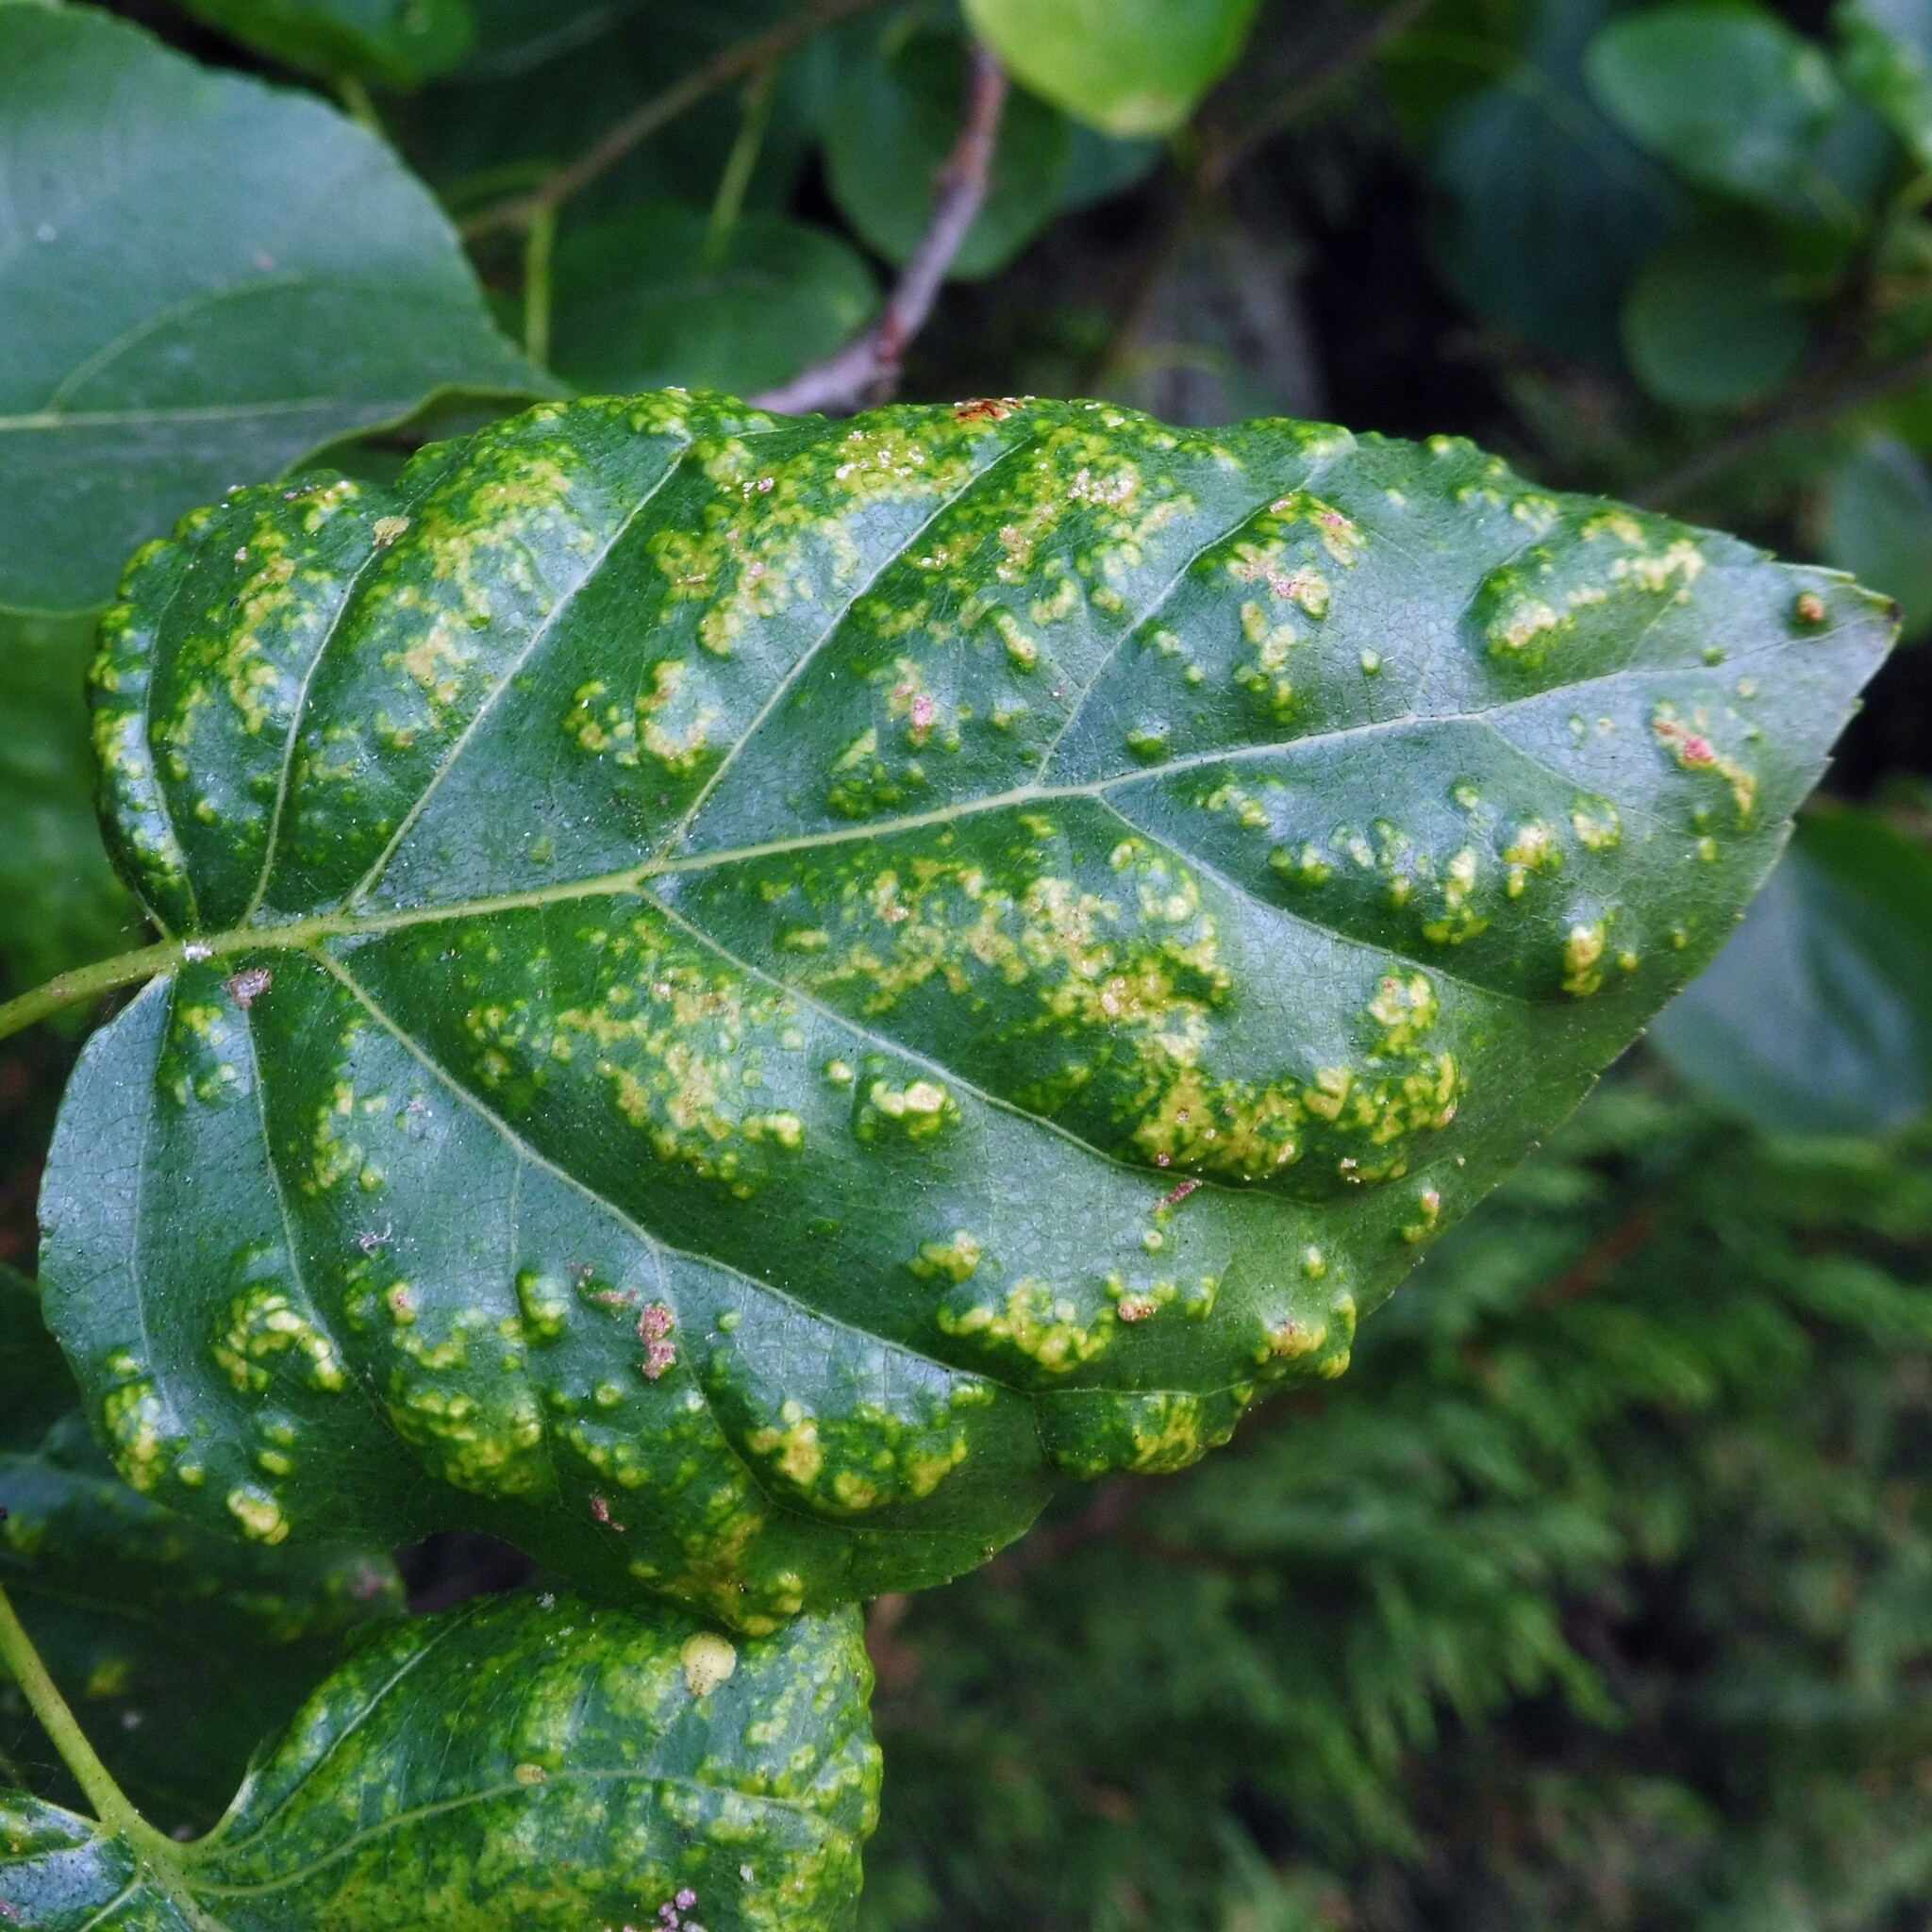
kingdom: Animalia
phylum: Arthropoda
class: Arachnida
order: Trombidiformes
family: Eriophyidae
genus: Acalitus
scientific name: Acalitus brevitarsus
